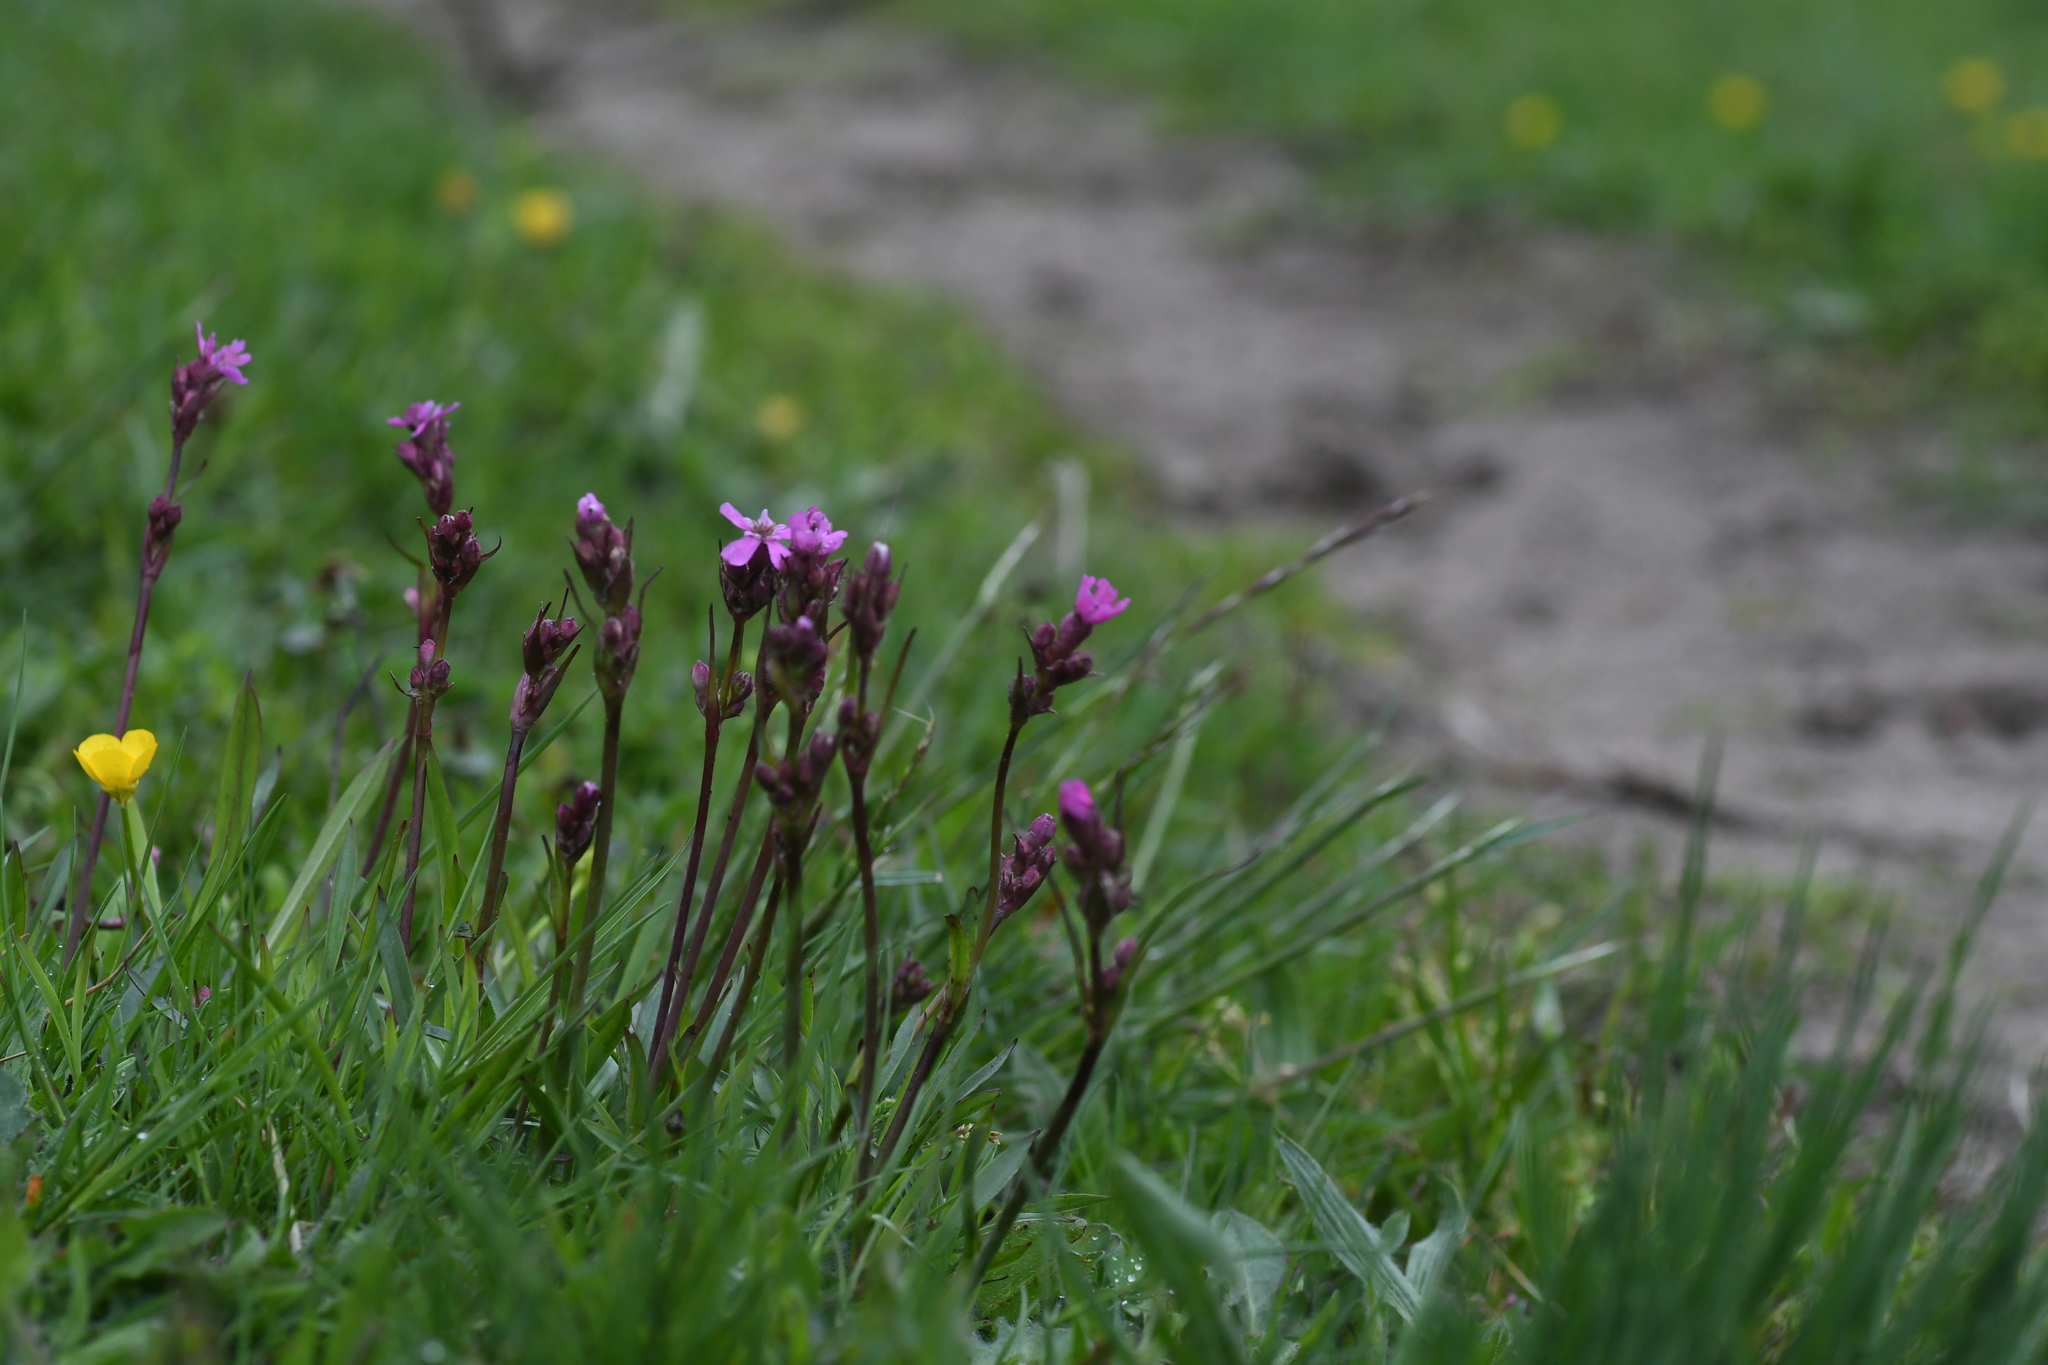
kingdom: Plantae
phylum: Tracheophyta
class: Magnoliopsida
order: Caryophyllales
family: Caryophyllaceae
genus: Viscaria
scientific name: Viscaria vulgaris
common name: Clammy campion
